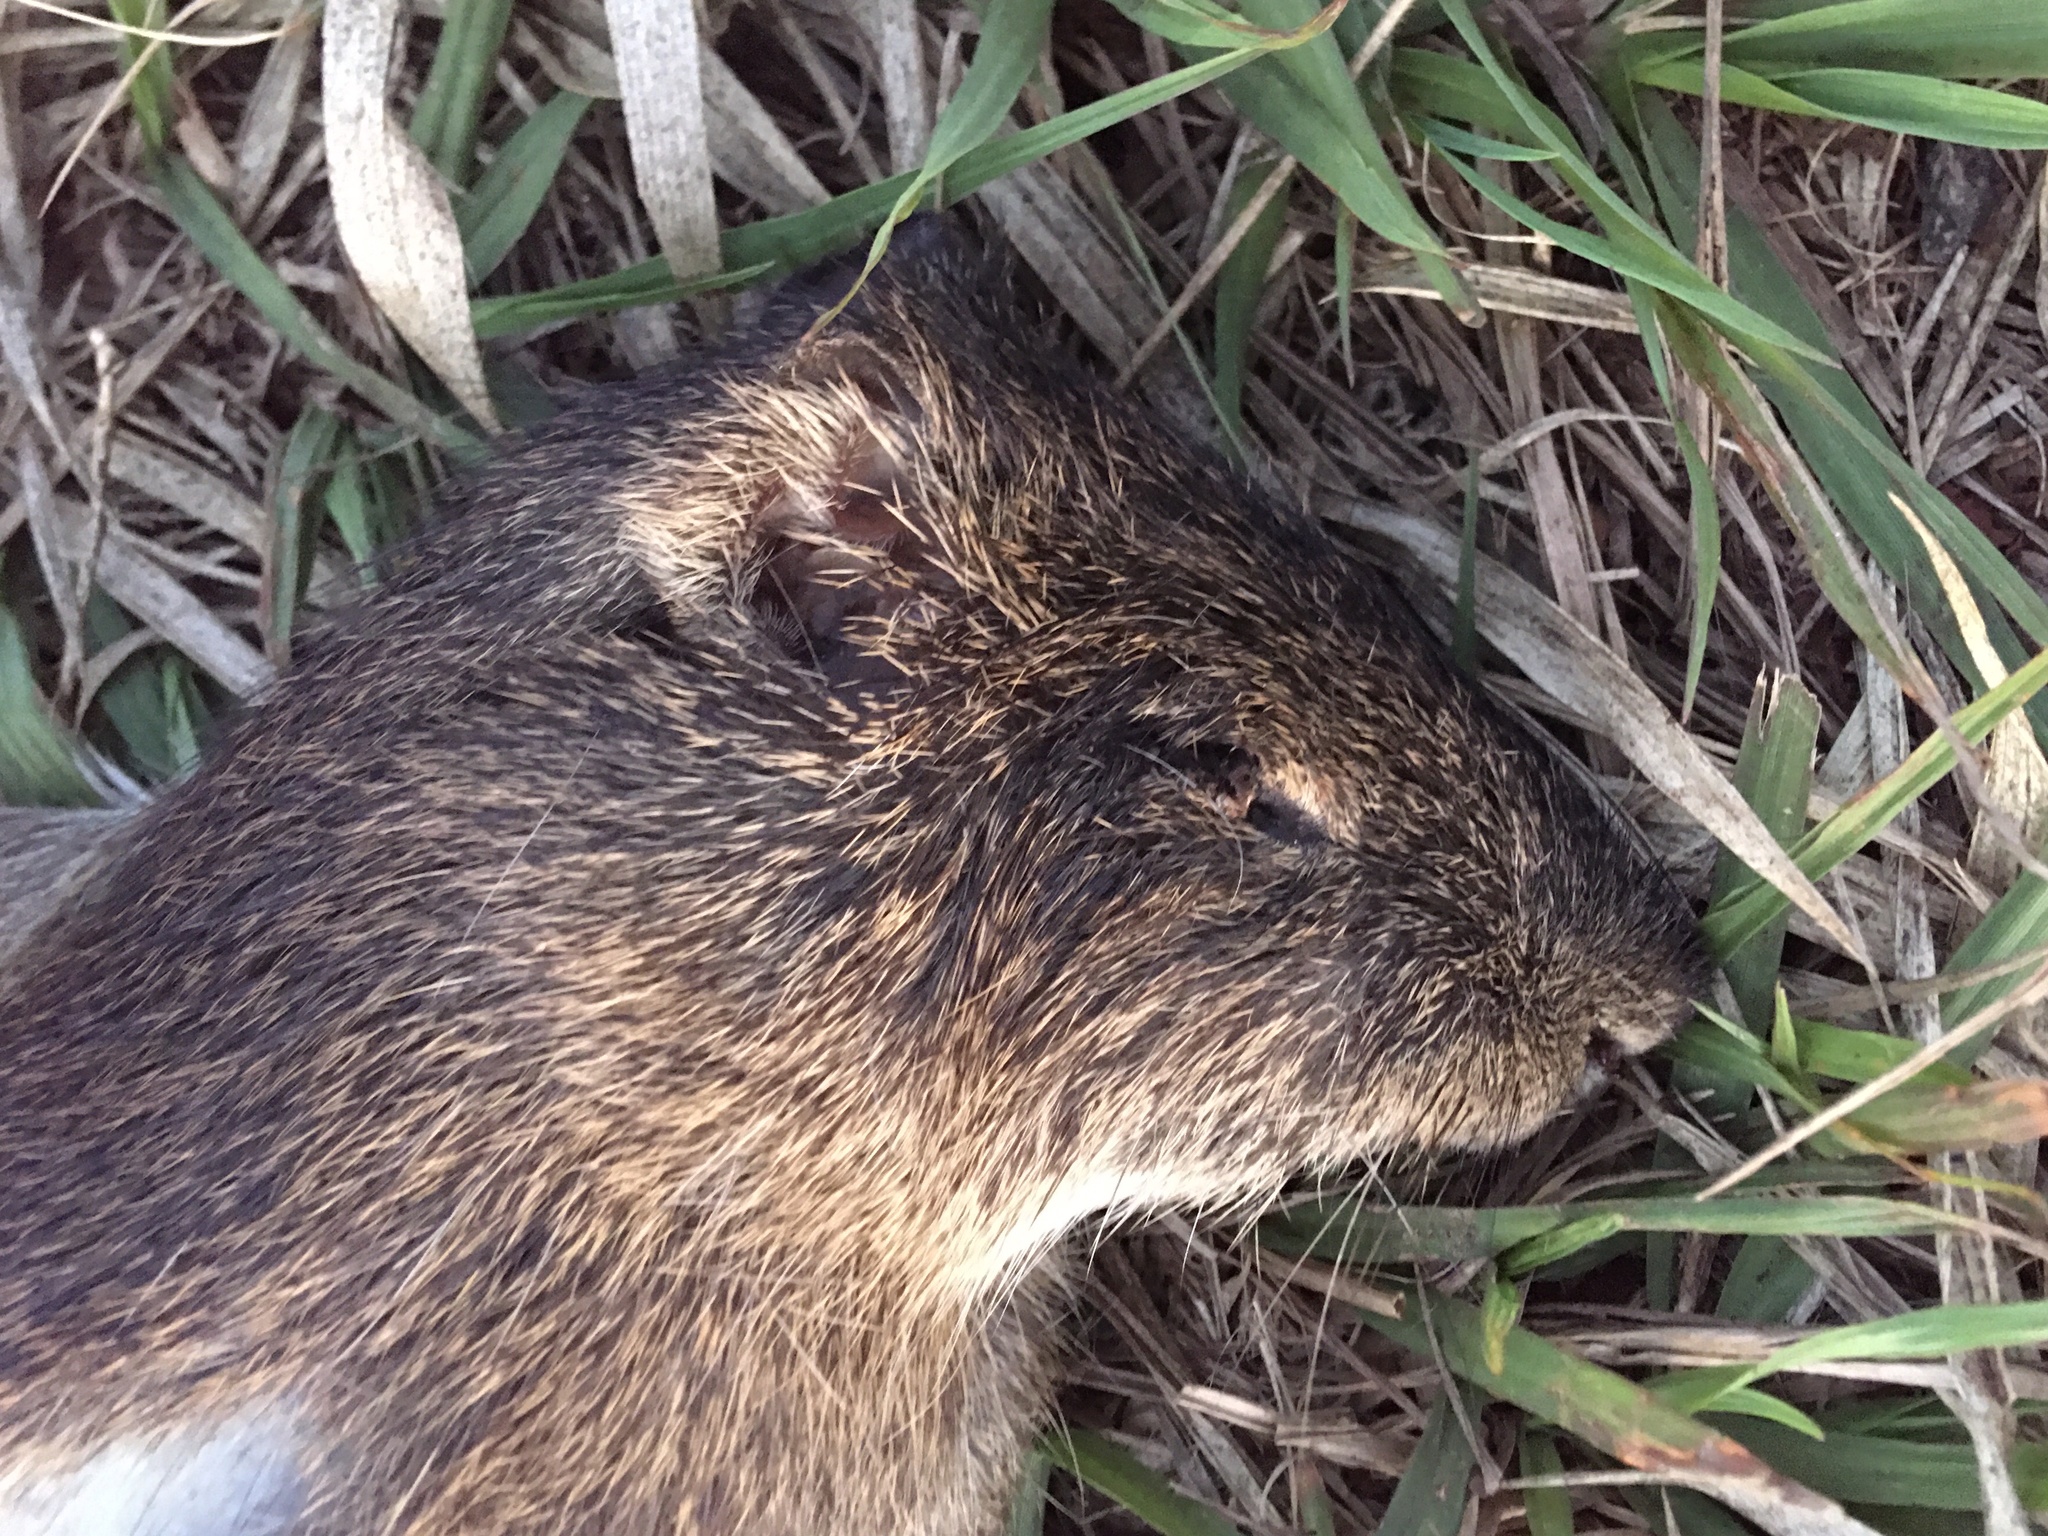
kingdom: Animalia
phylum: Chordata
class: Mammalia
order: Rodentia
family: Caviidae
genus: Cavia
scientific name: Cavia aperea
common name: Brazilian guinea pig
